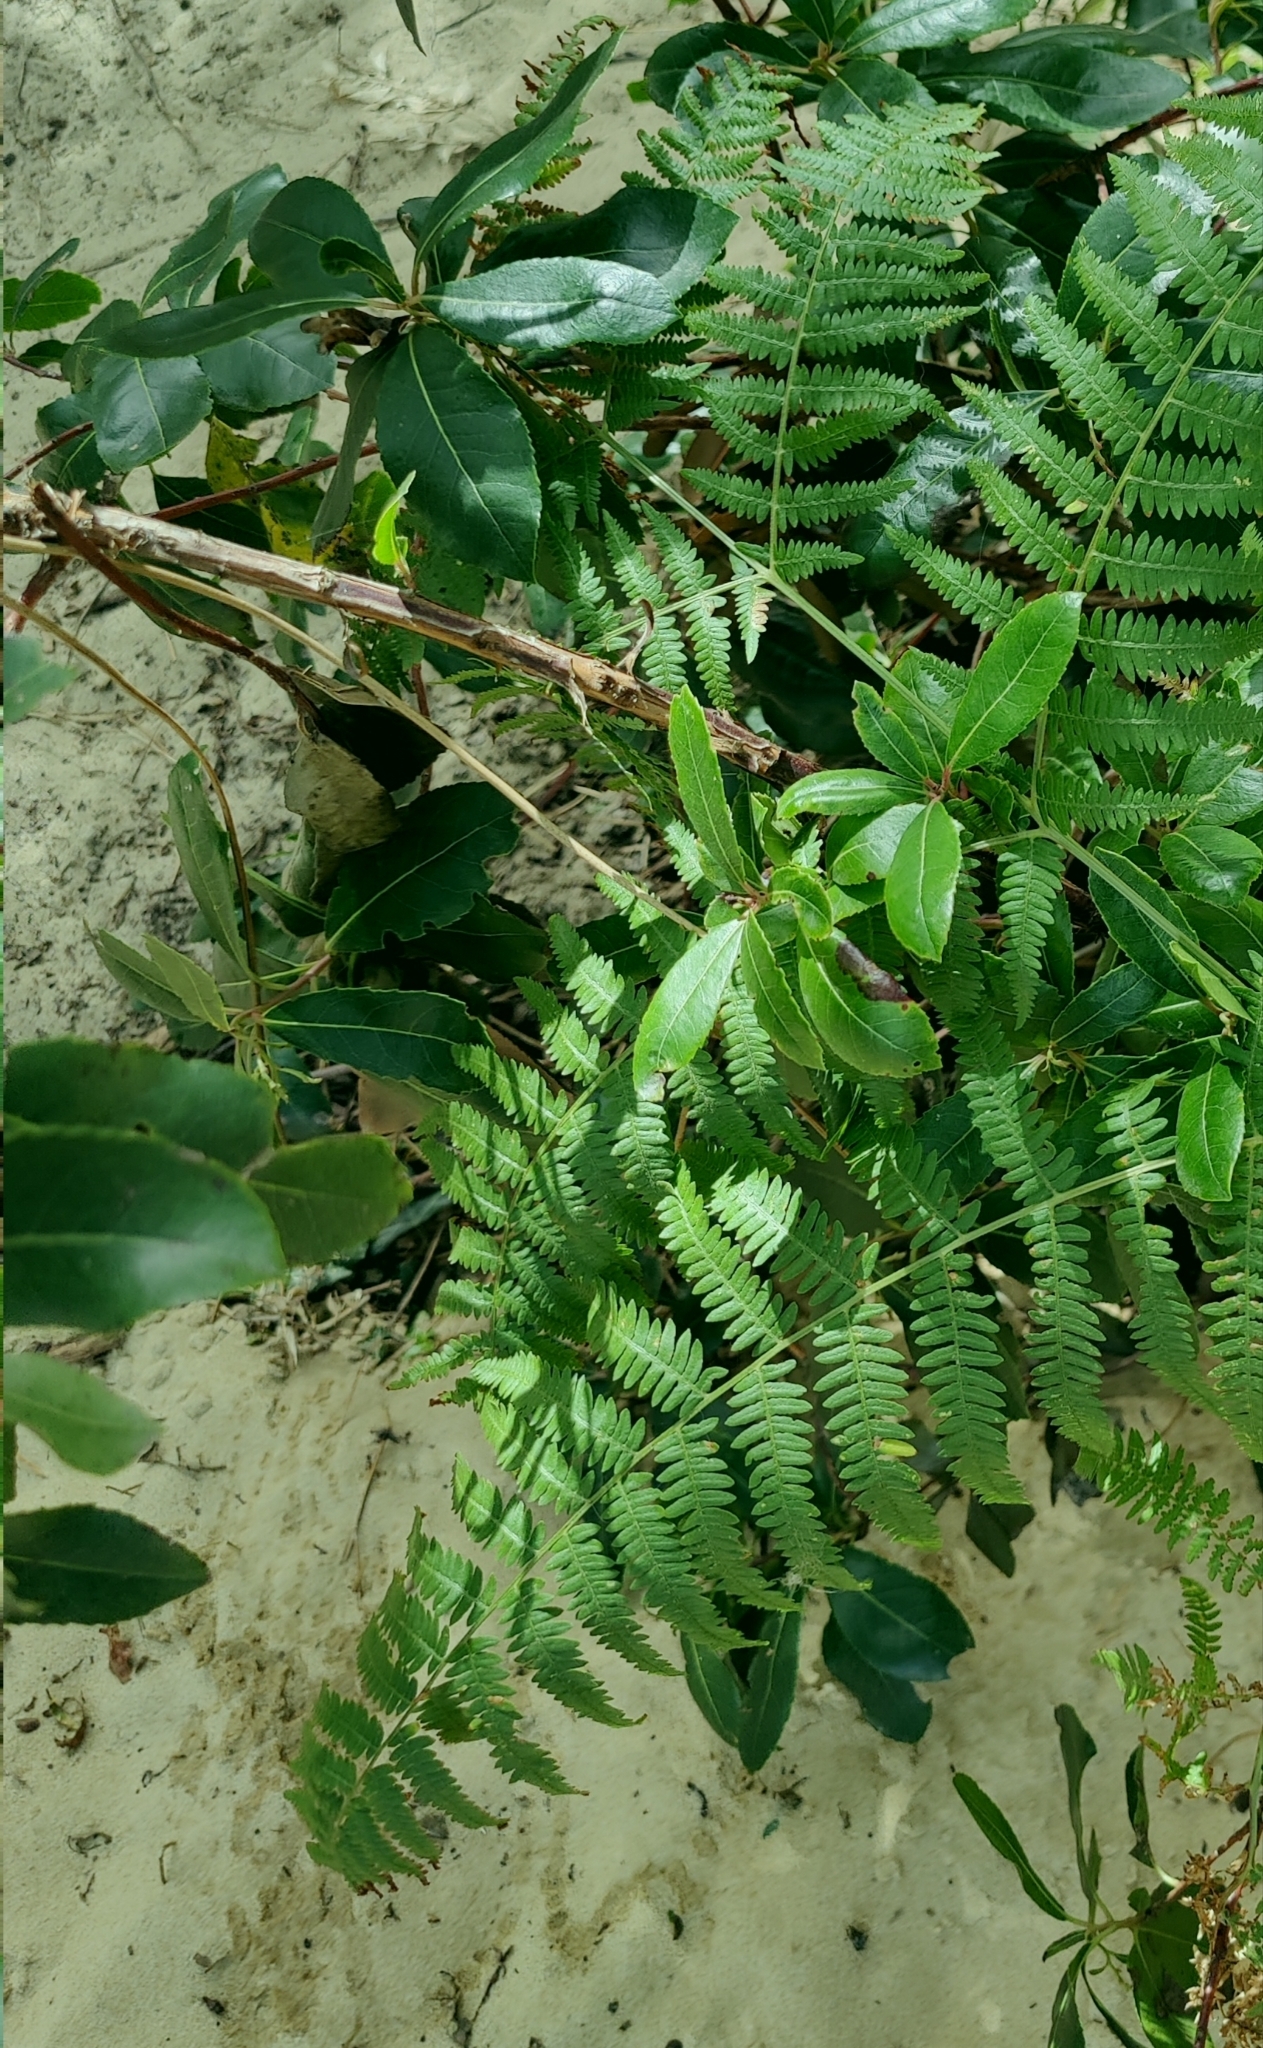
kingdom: Plantae
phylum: Tracheophyta
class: Polypodiopsida
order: Polypodiales
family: Dennstaedtiaceae
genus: Pteridium
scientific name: Pteridium aquilinum
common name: Bracken
